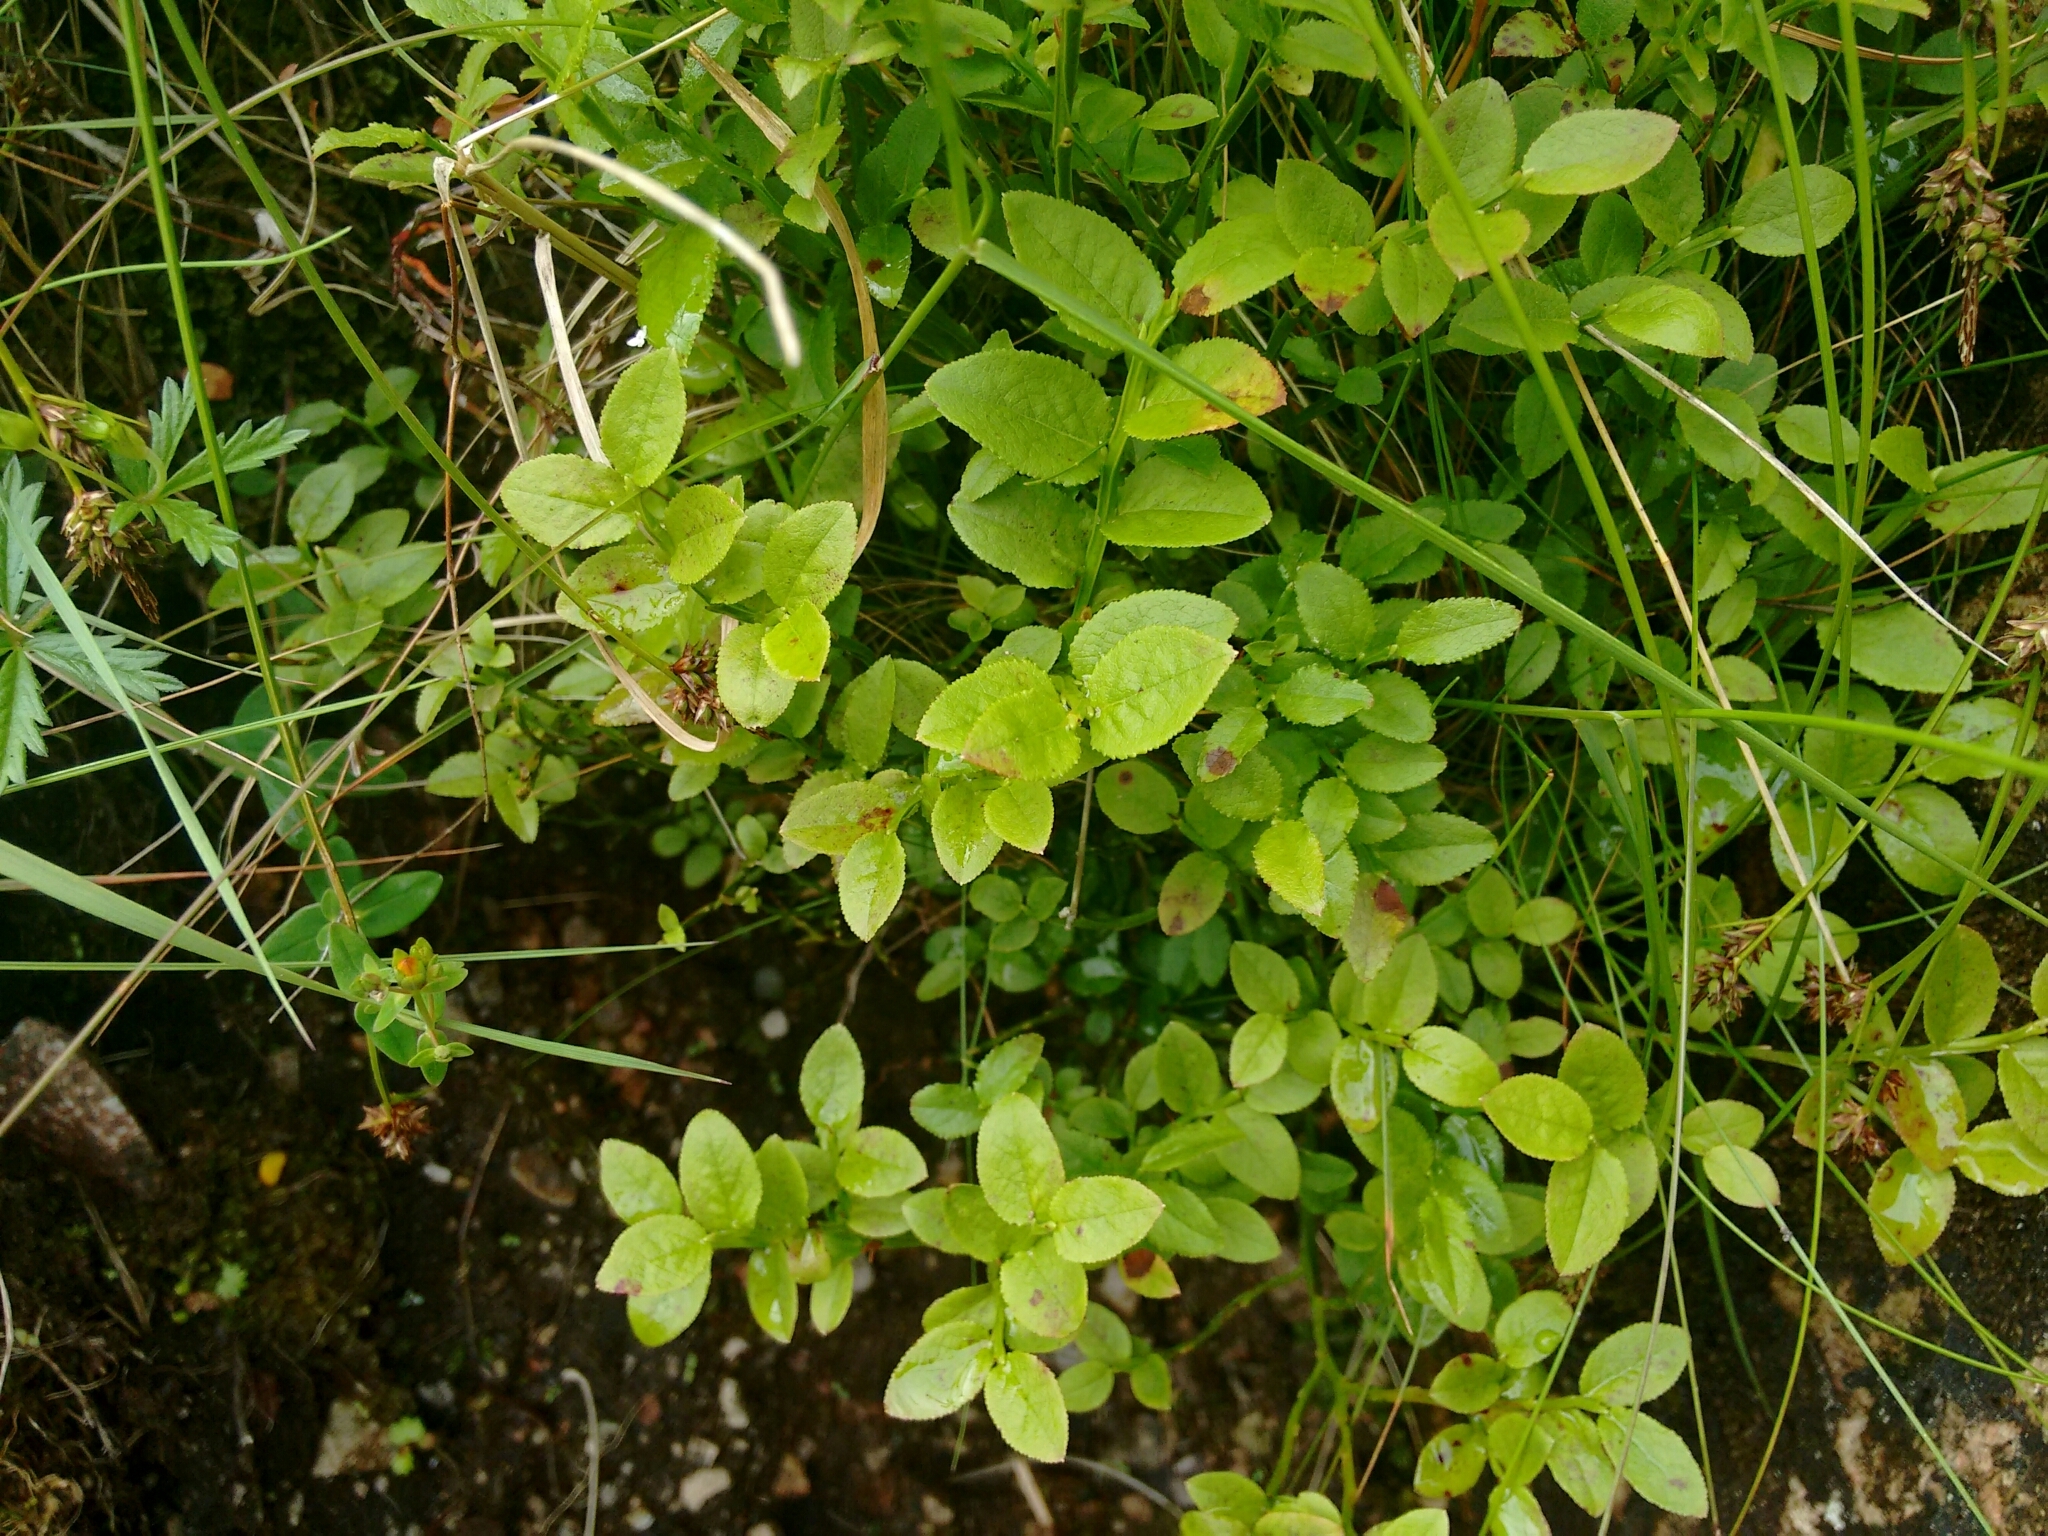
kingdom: Plantae
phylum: Tracheophyta
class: Magnoliopsida
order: Ericales
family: Ericaceae
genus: Vaccinium
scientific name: Vaccinium myrtillus
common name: Bilberry
